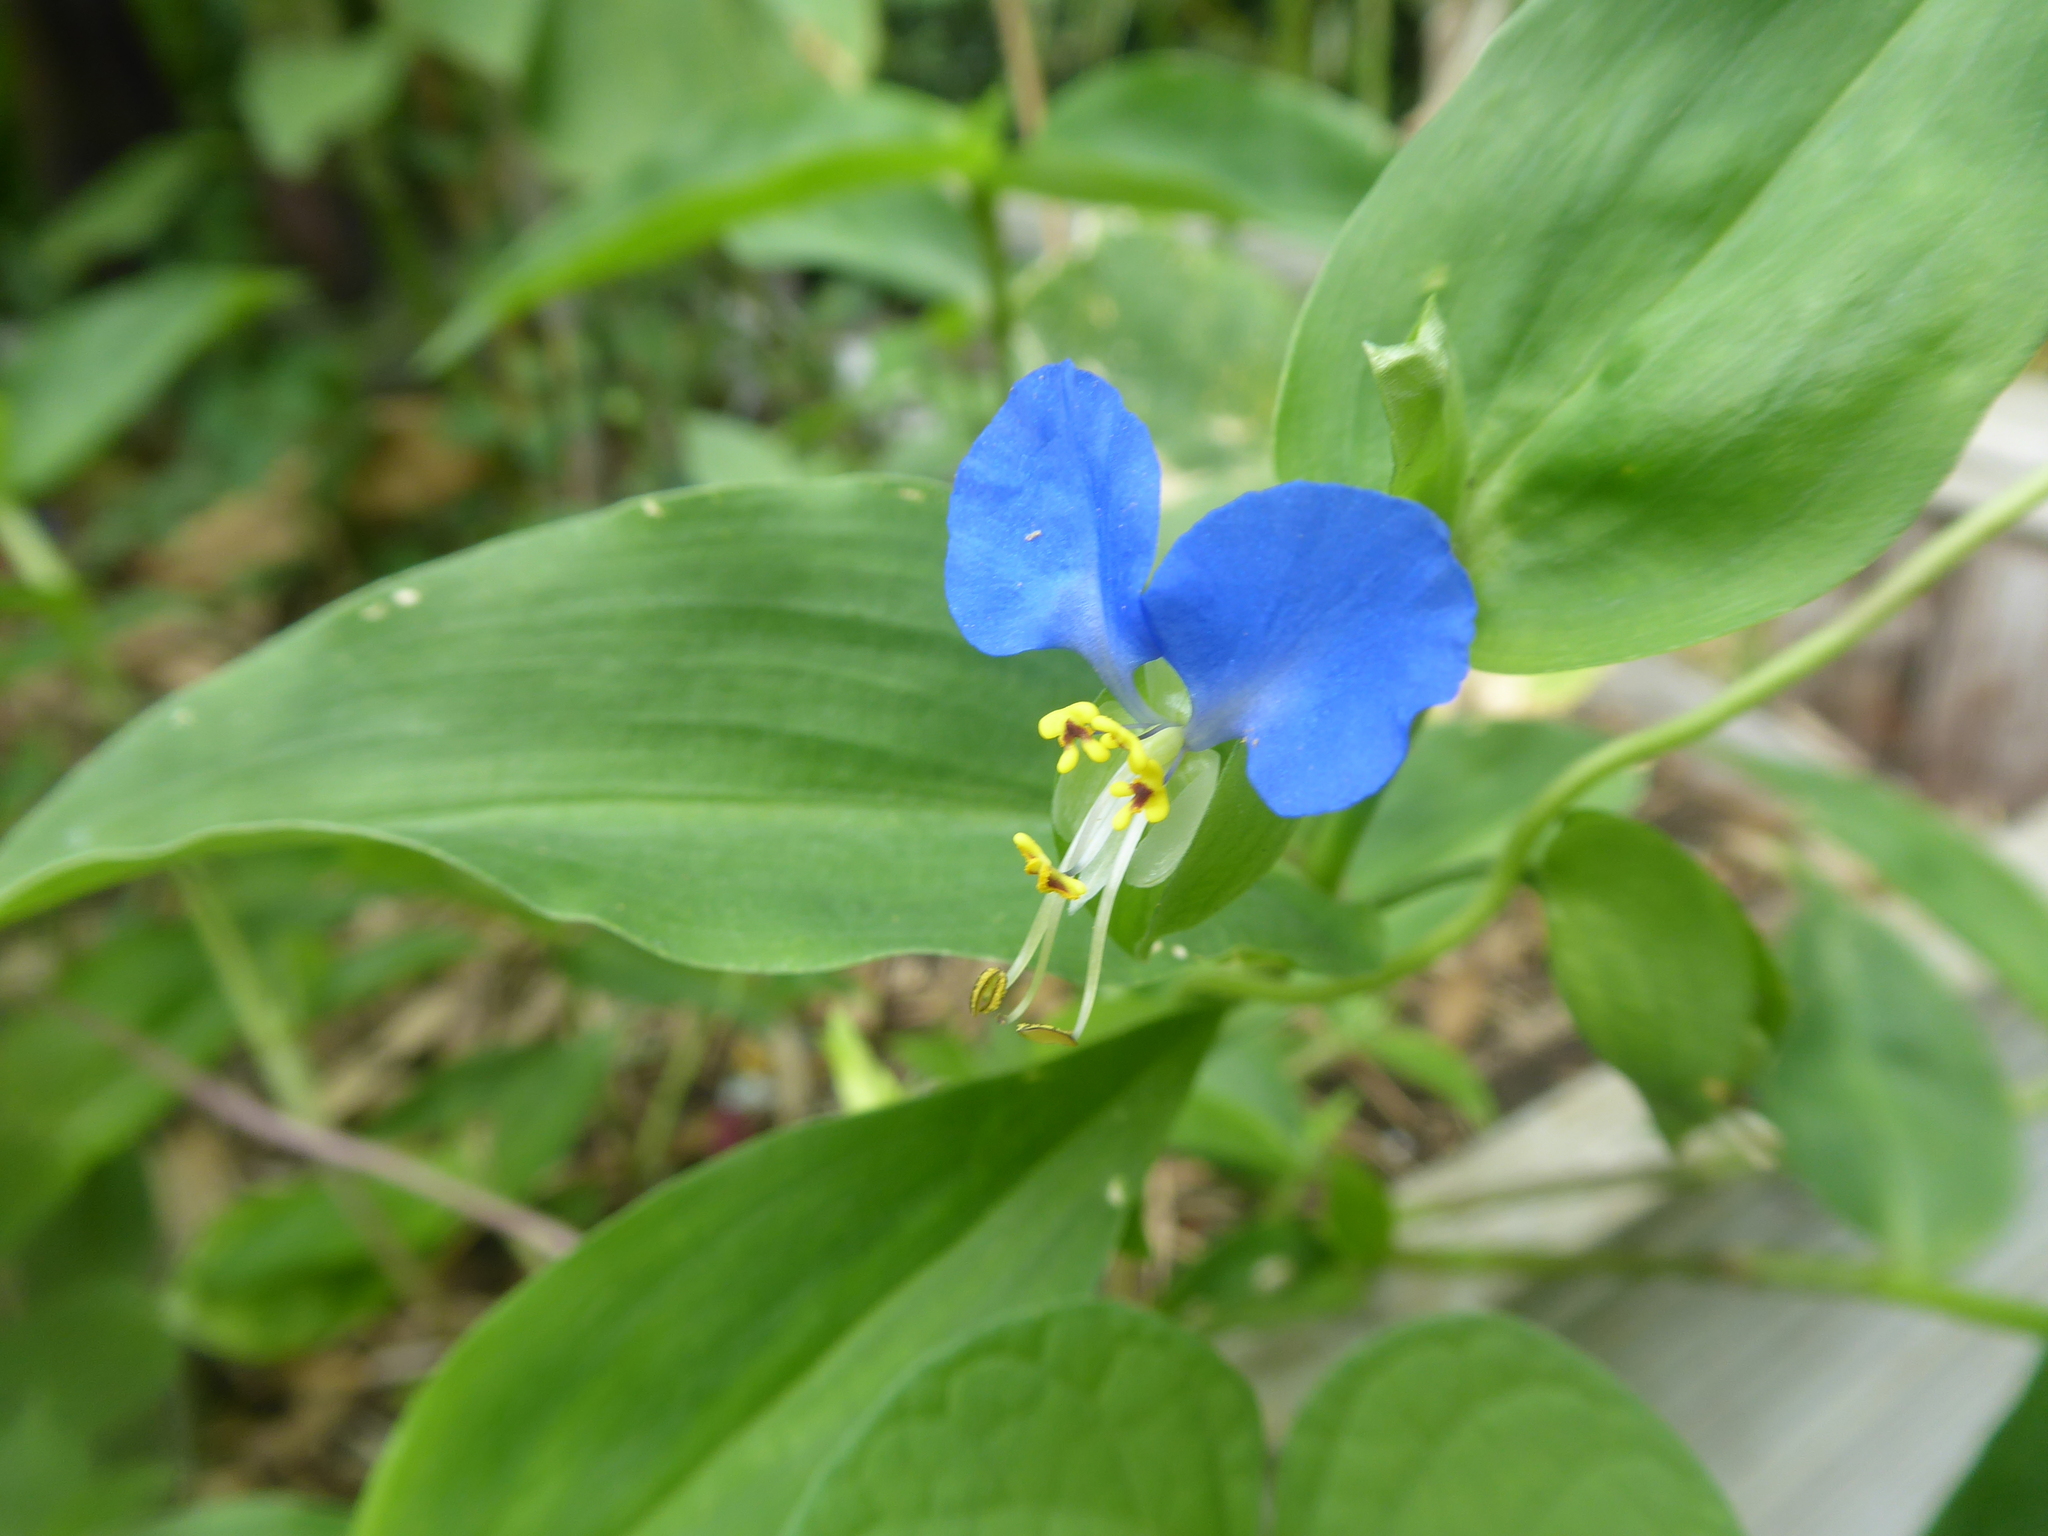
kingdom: Plantae
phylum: Tracheophyta
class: Liliopsida
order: Commelinales
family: Commelinaceae
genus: Commelina
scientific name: Commelina communis
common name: Asiatic dayflower
